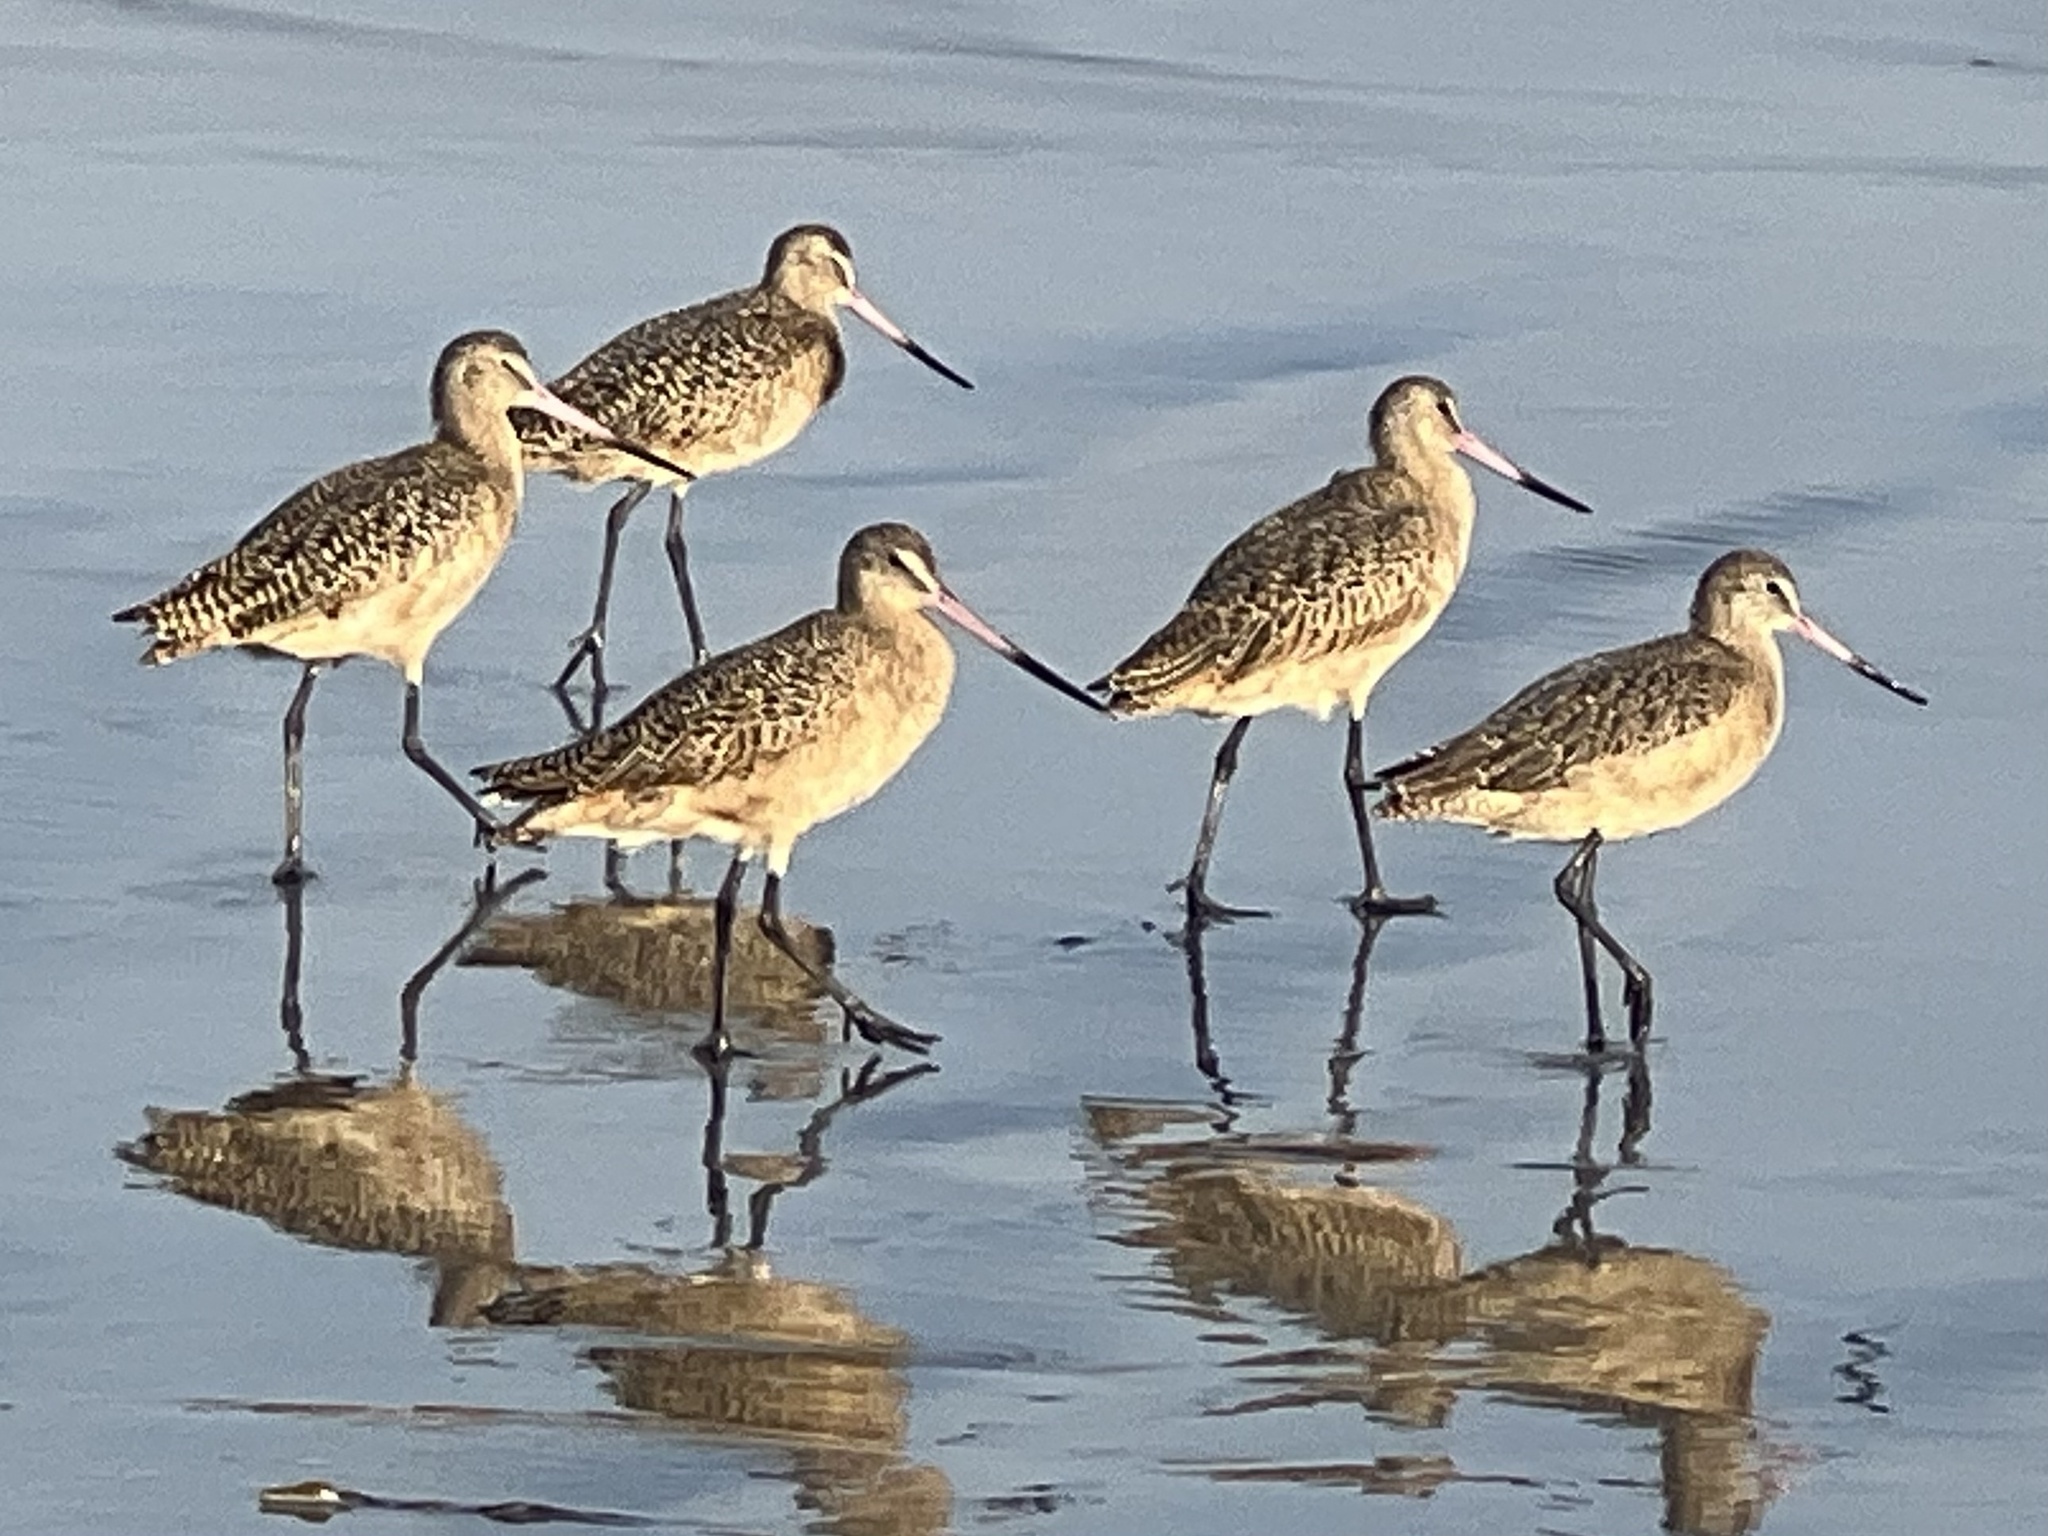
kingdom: Animalia
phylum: Chordata
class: Aves
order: Charadriiformes
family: Scolopacidae
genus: Limosa
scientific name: Limosa fedoa
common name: Marbled godwit
